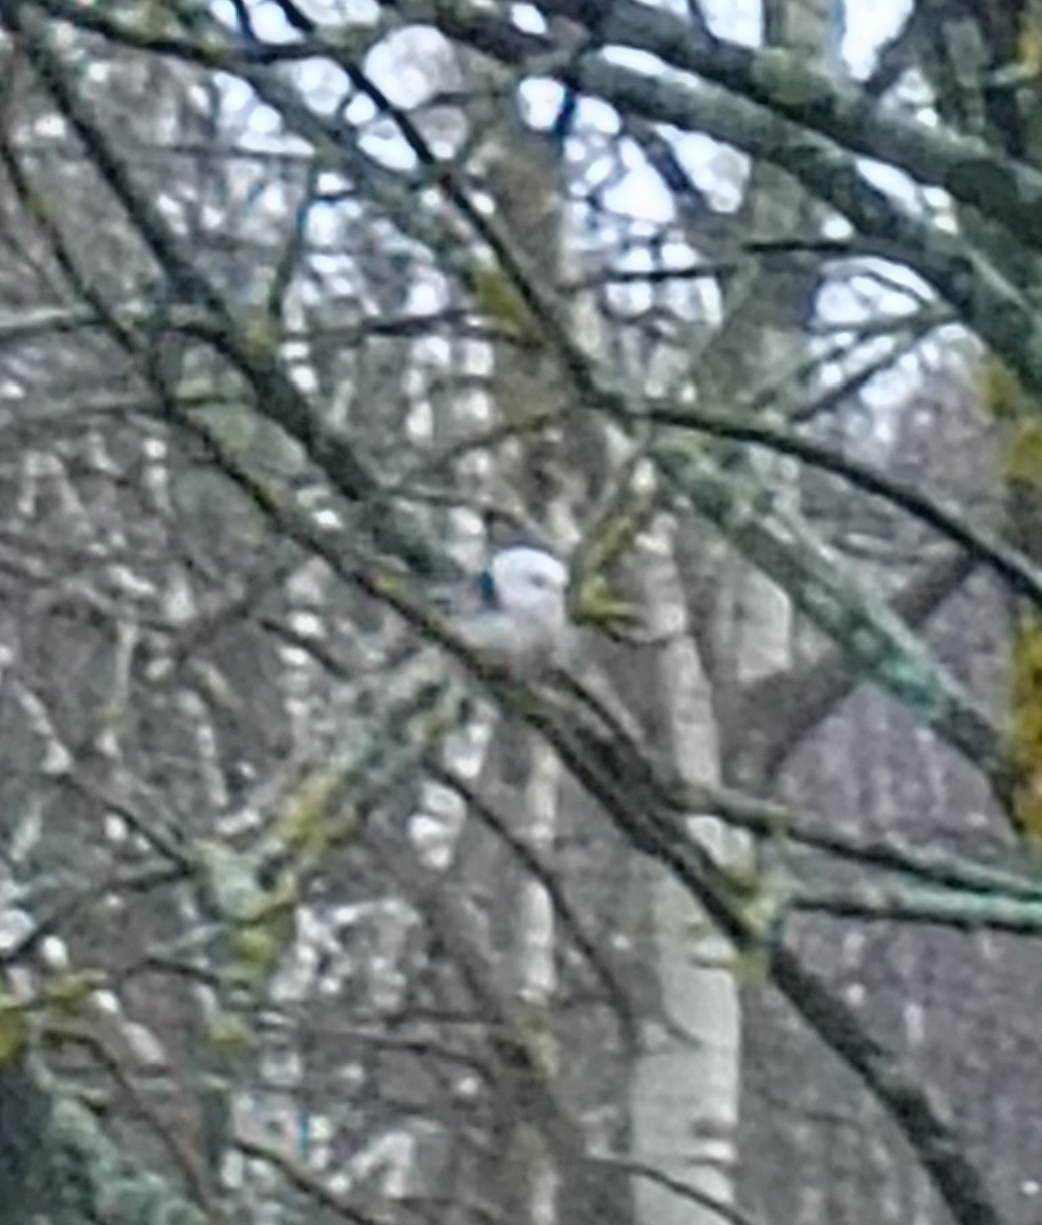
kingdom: Animalia
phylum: Chordata
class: Aves
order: Passeriformes
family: Aegithalidae
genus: Aegithalos
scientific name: Aegithalos caudatus
